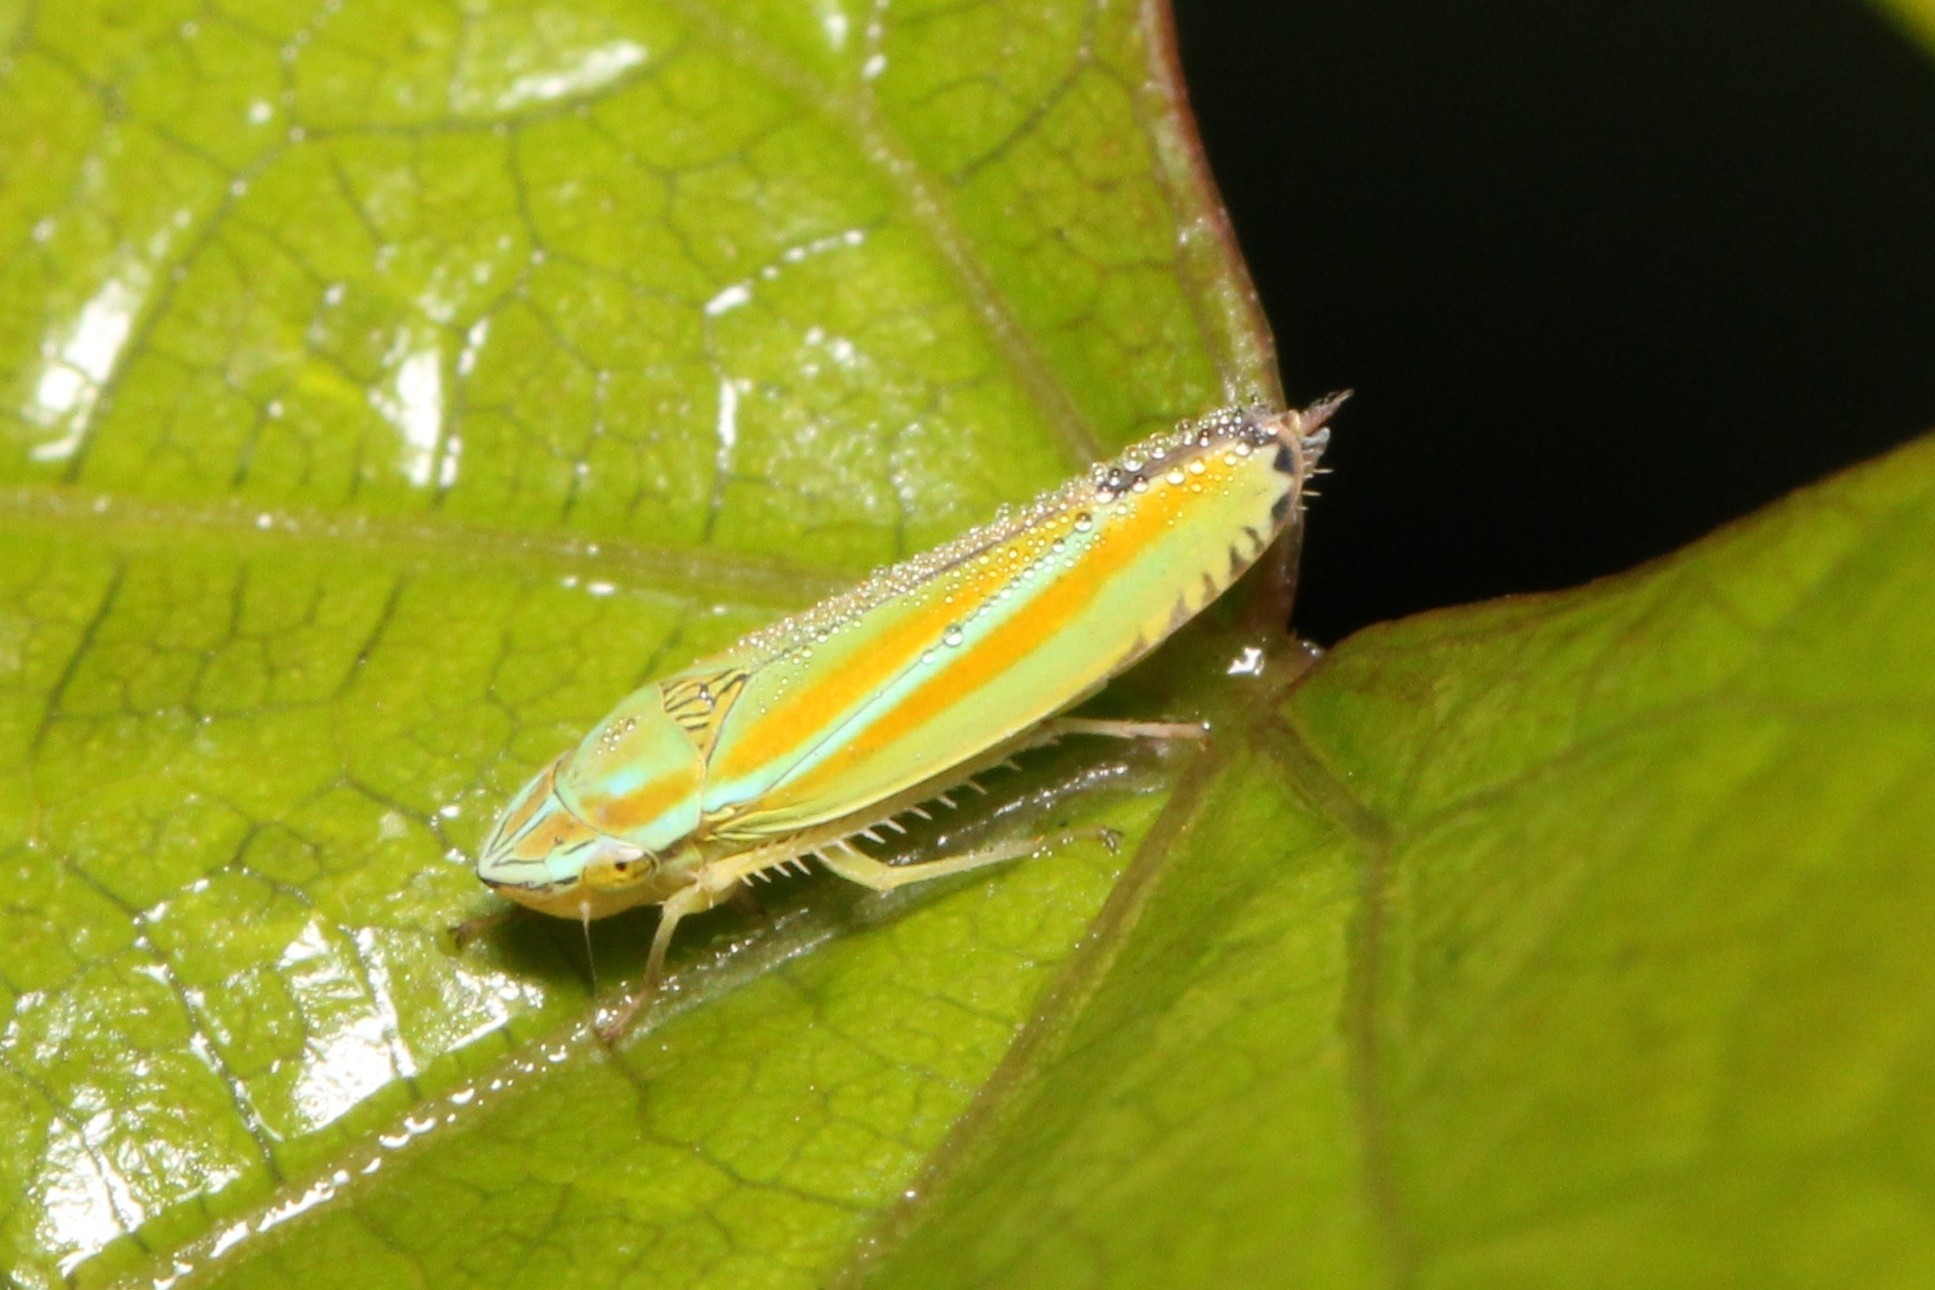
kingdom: Animalia
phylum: Arthropoda
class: Insecta
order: Hemiptera
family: Cicadellidae
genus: Graphocephala
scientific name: Graphocephala versuta
